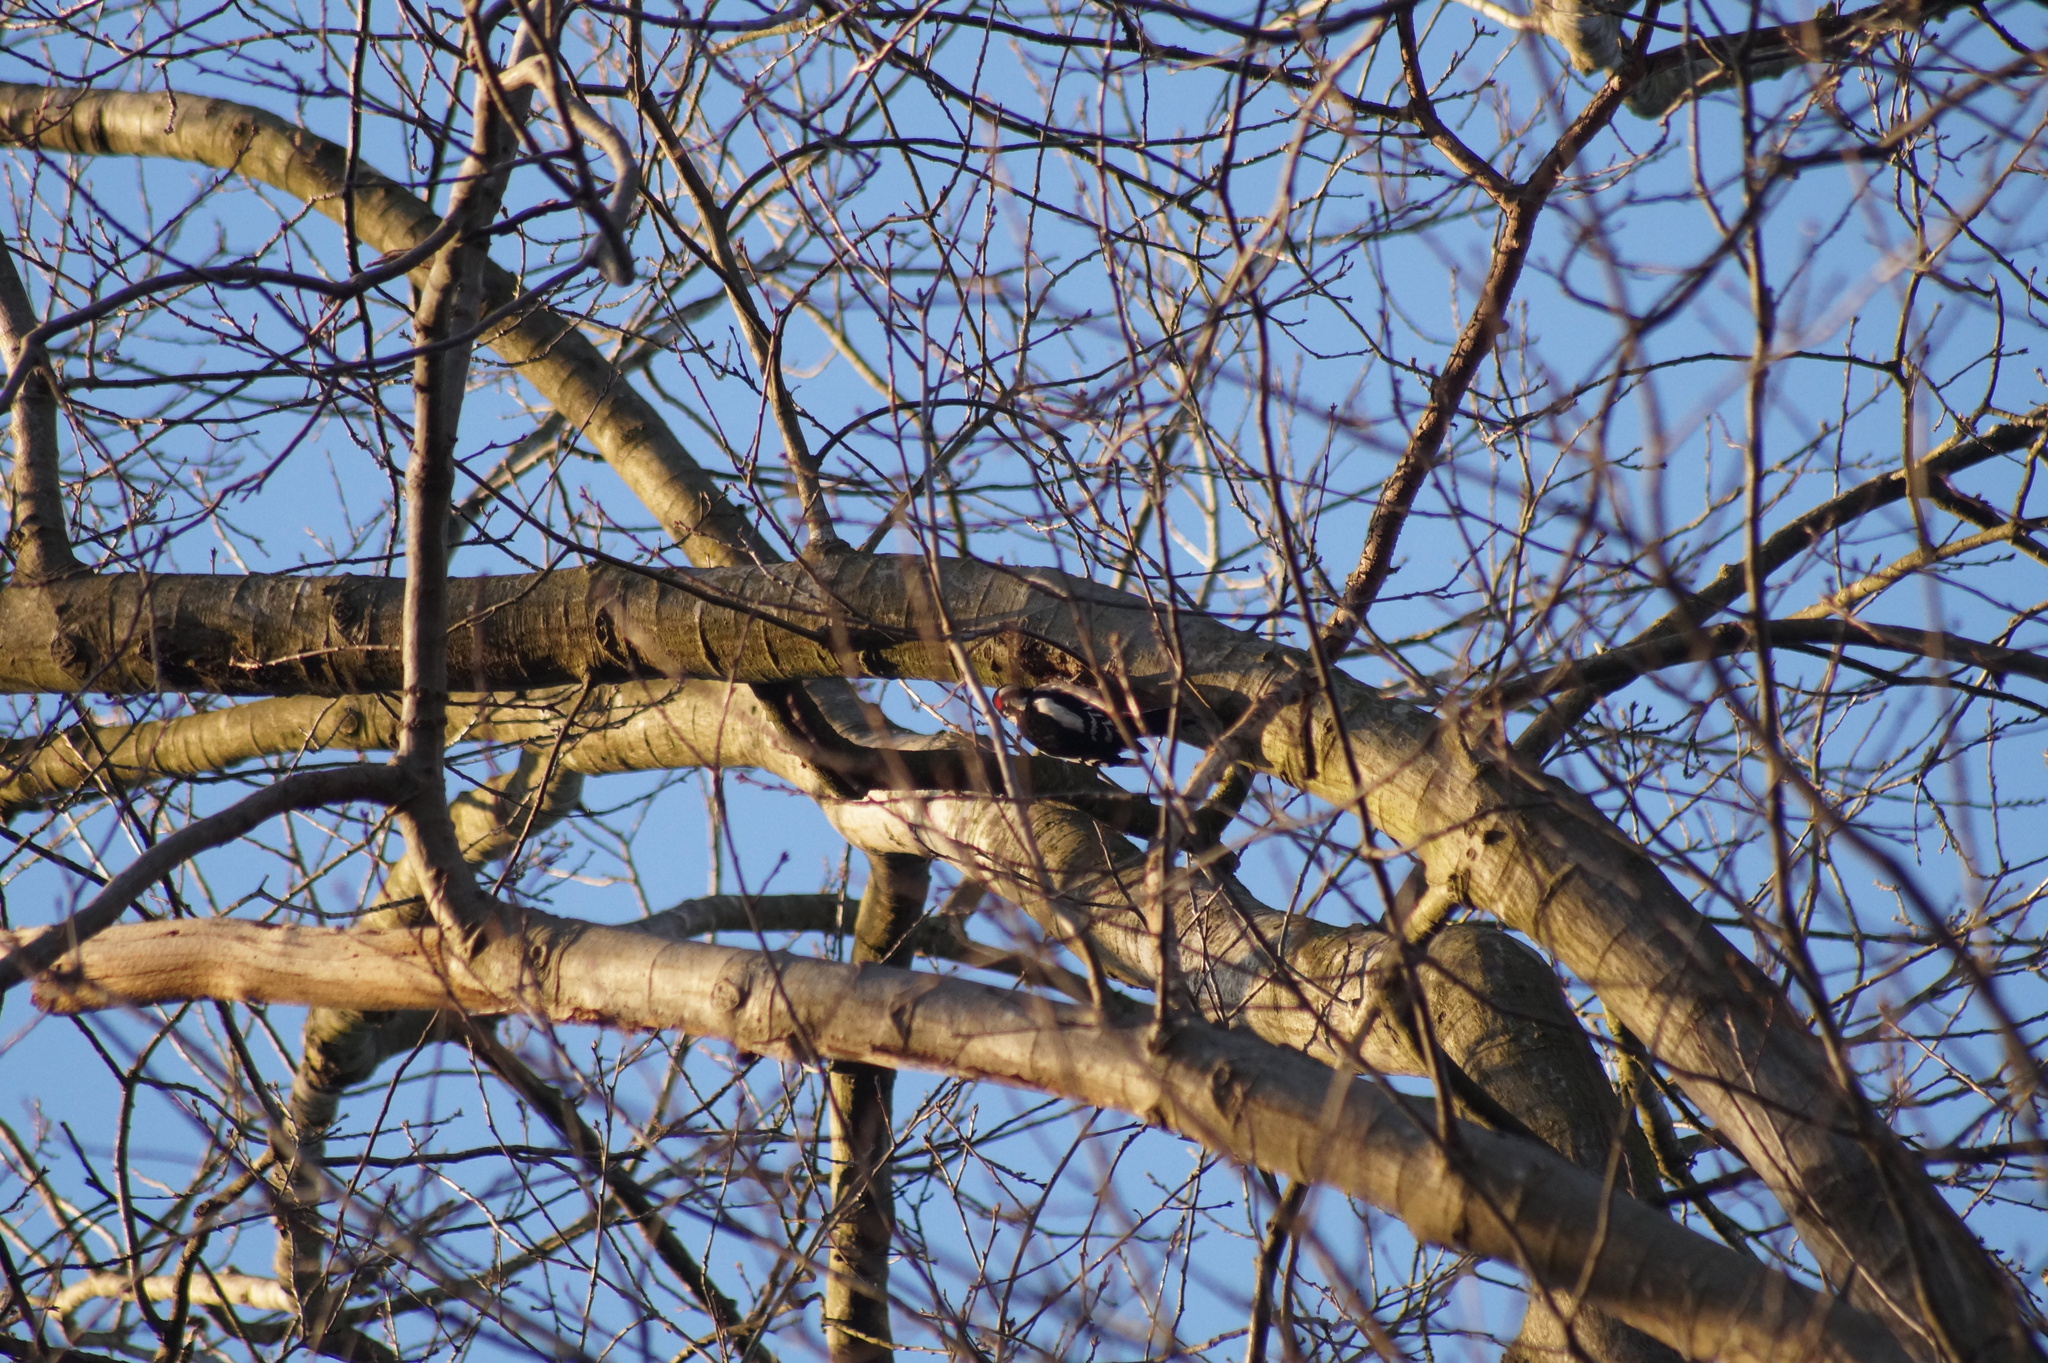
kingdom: Animalia
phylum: Chordata
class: Aves
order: Piciformes
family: Picidae
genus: Dendrocopos
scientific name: Dendrocopos major
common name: Great spotted woodpecker
